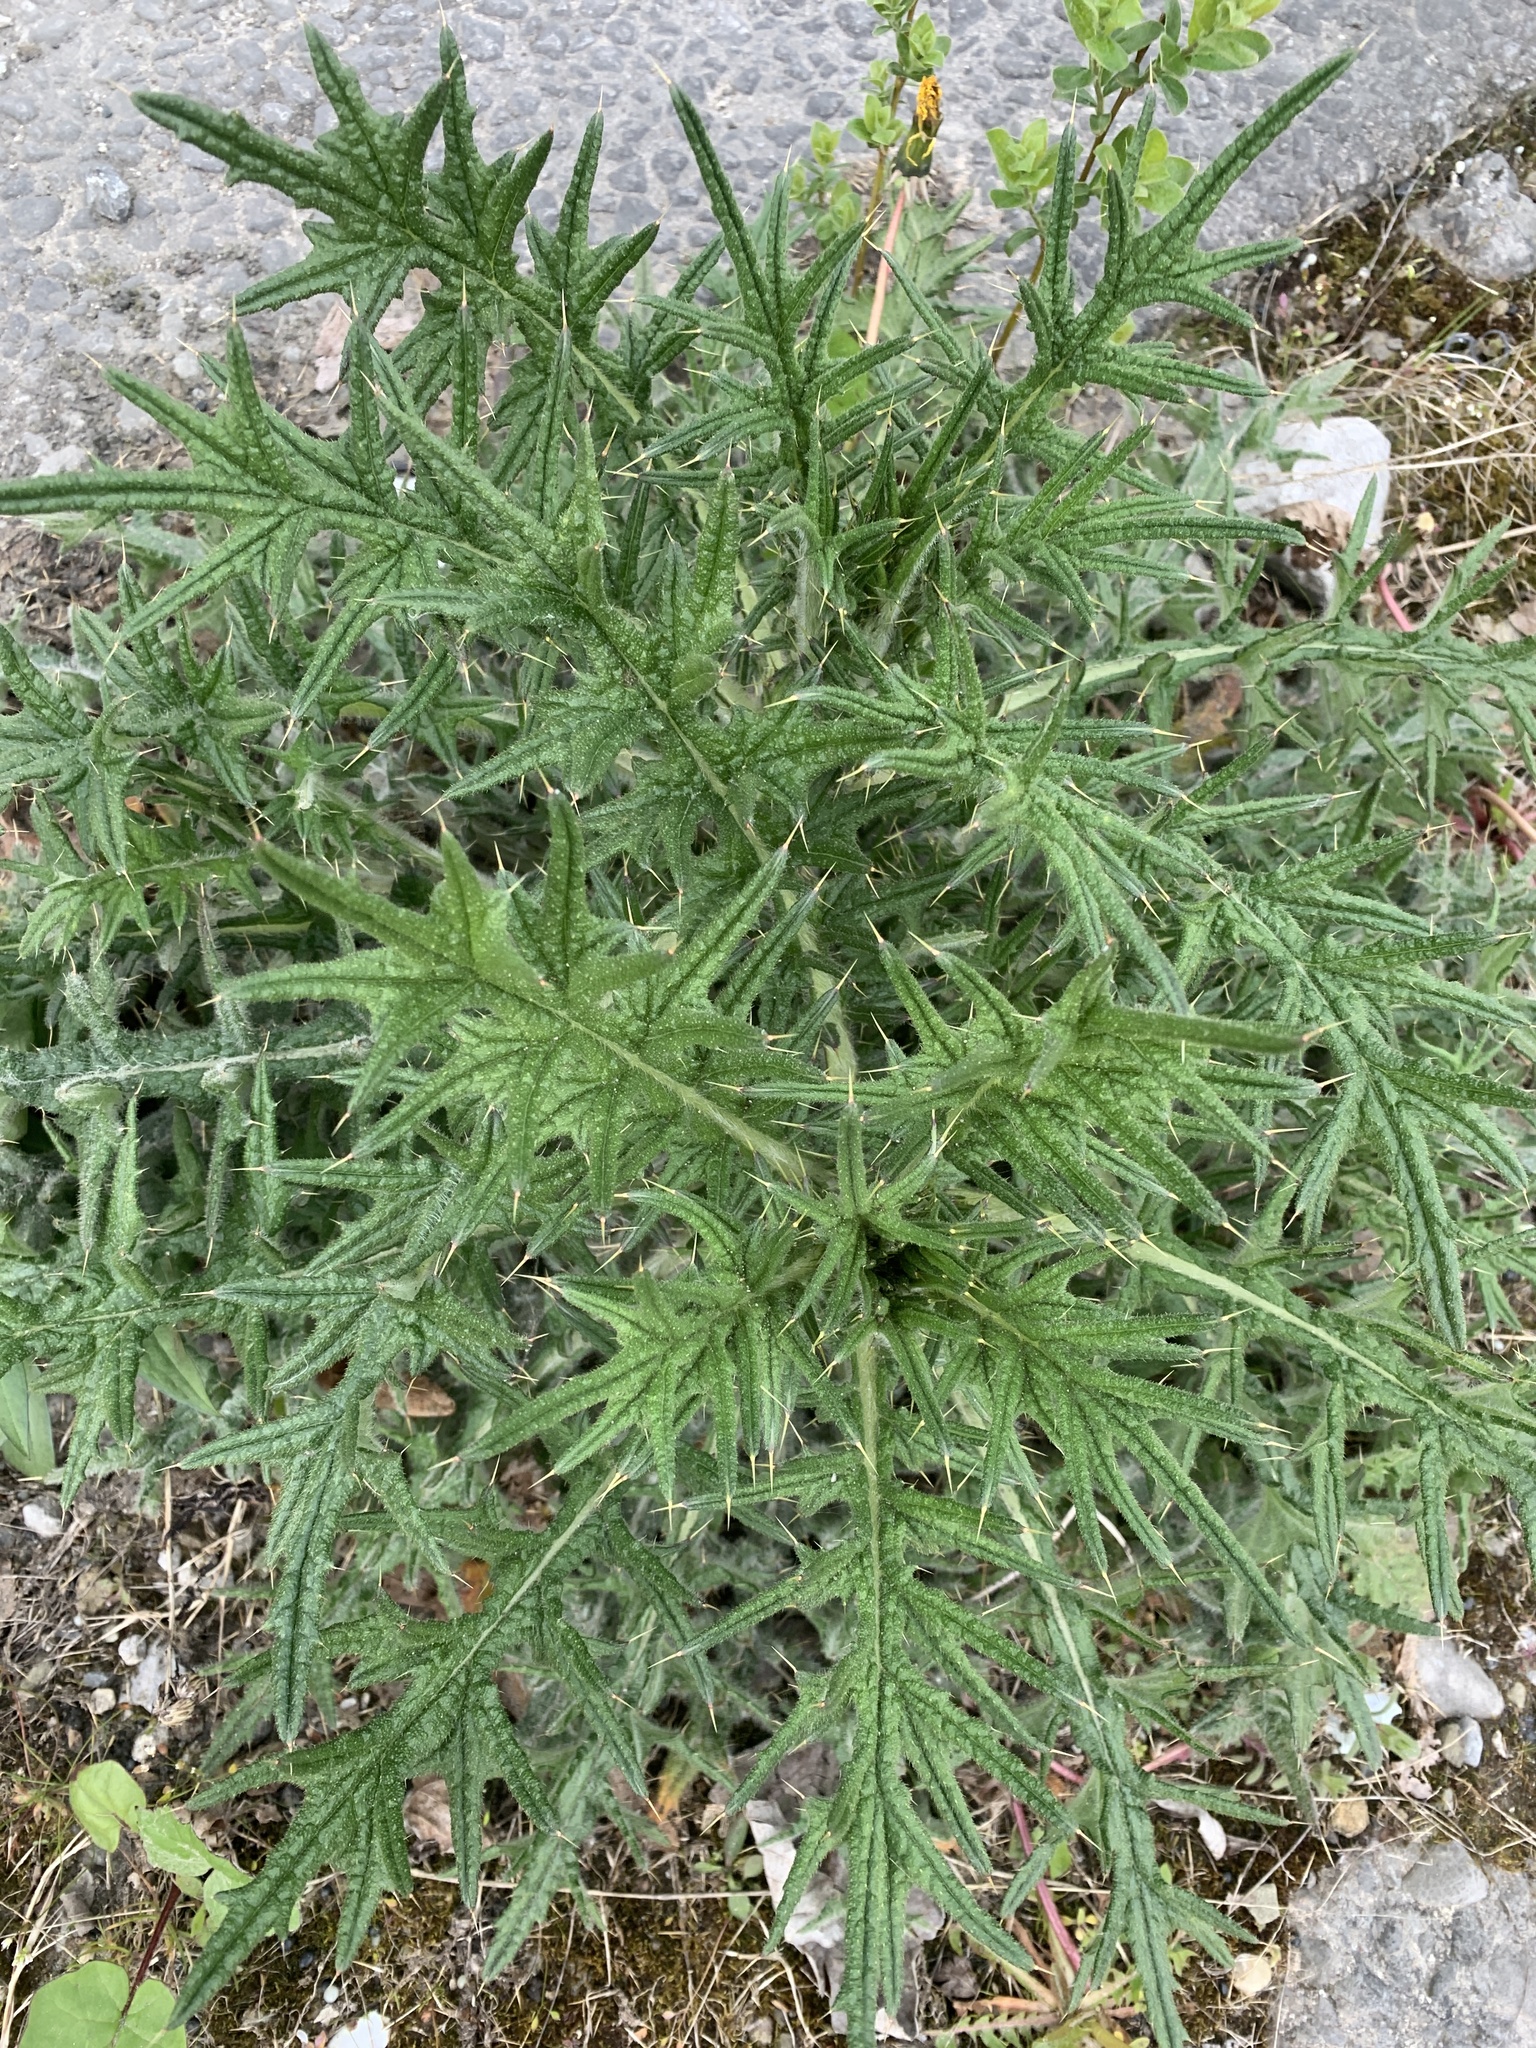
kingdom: Plantae
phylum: Tracheophyta
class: Magnoliopsida
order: Asterales
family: Asteraceae
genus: Cirsium
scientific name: Cirsium vulgare
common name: Bull thistle
